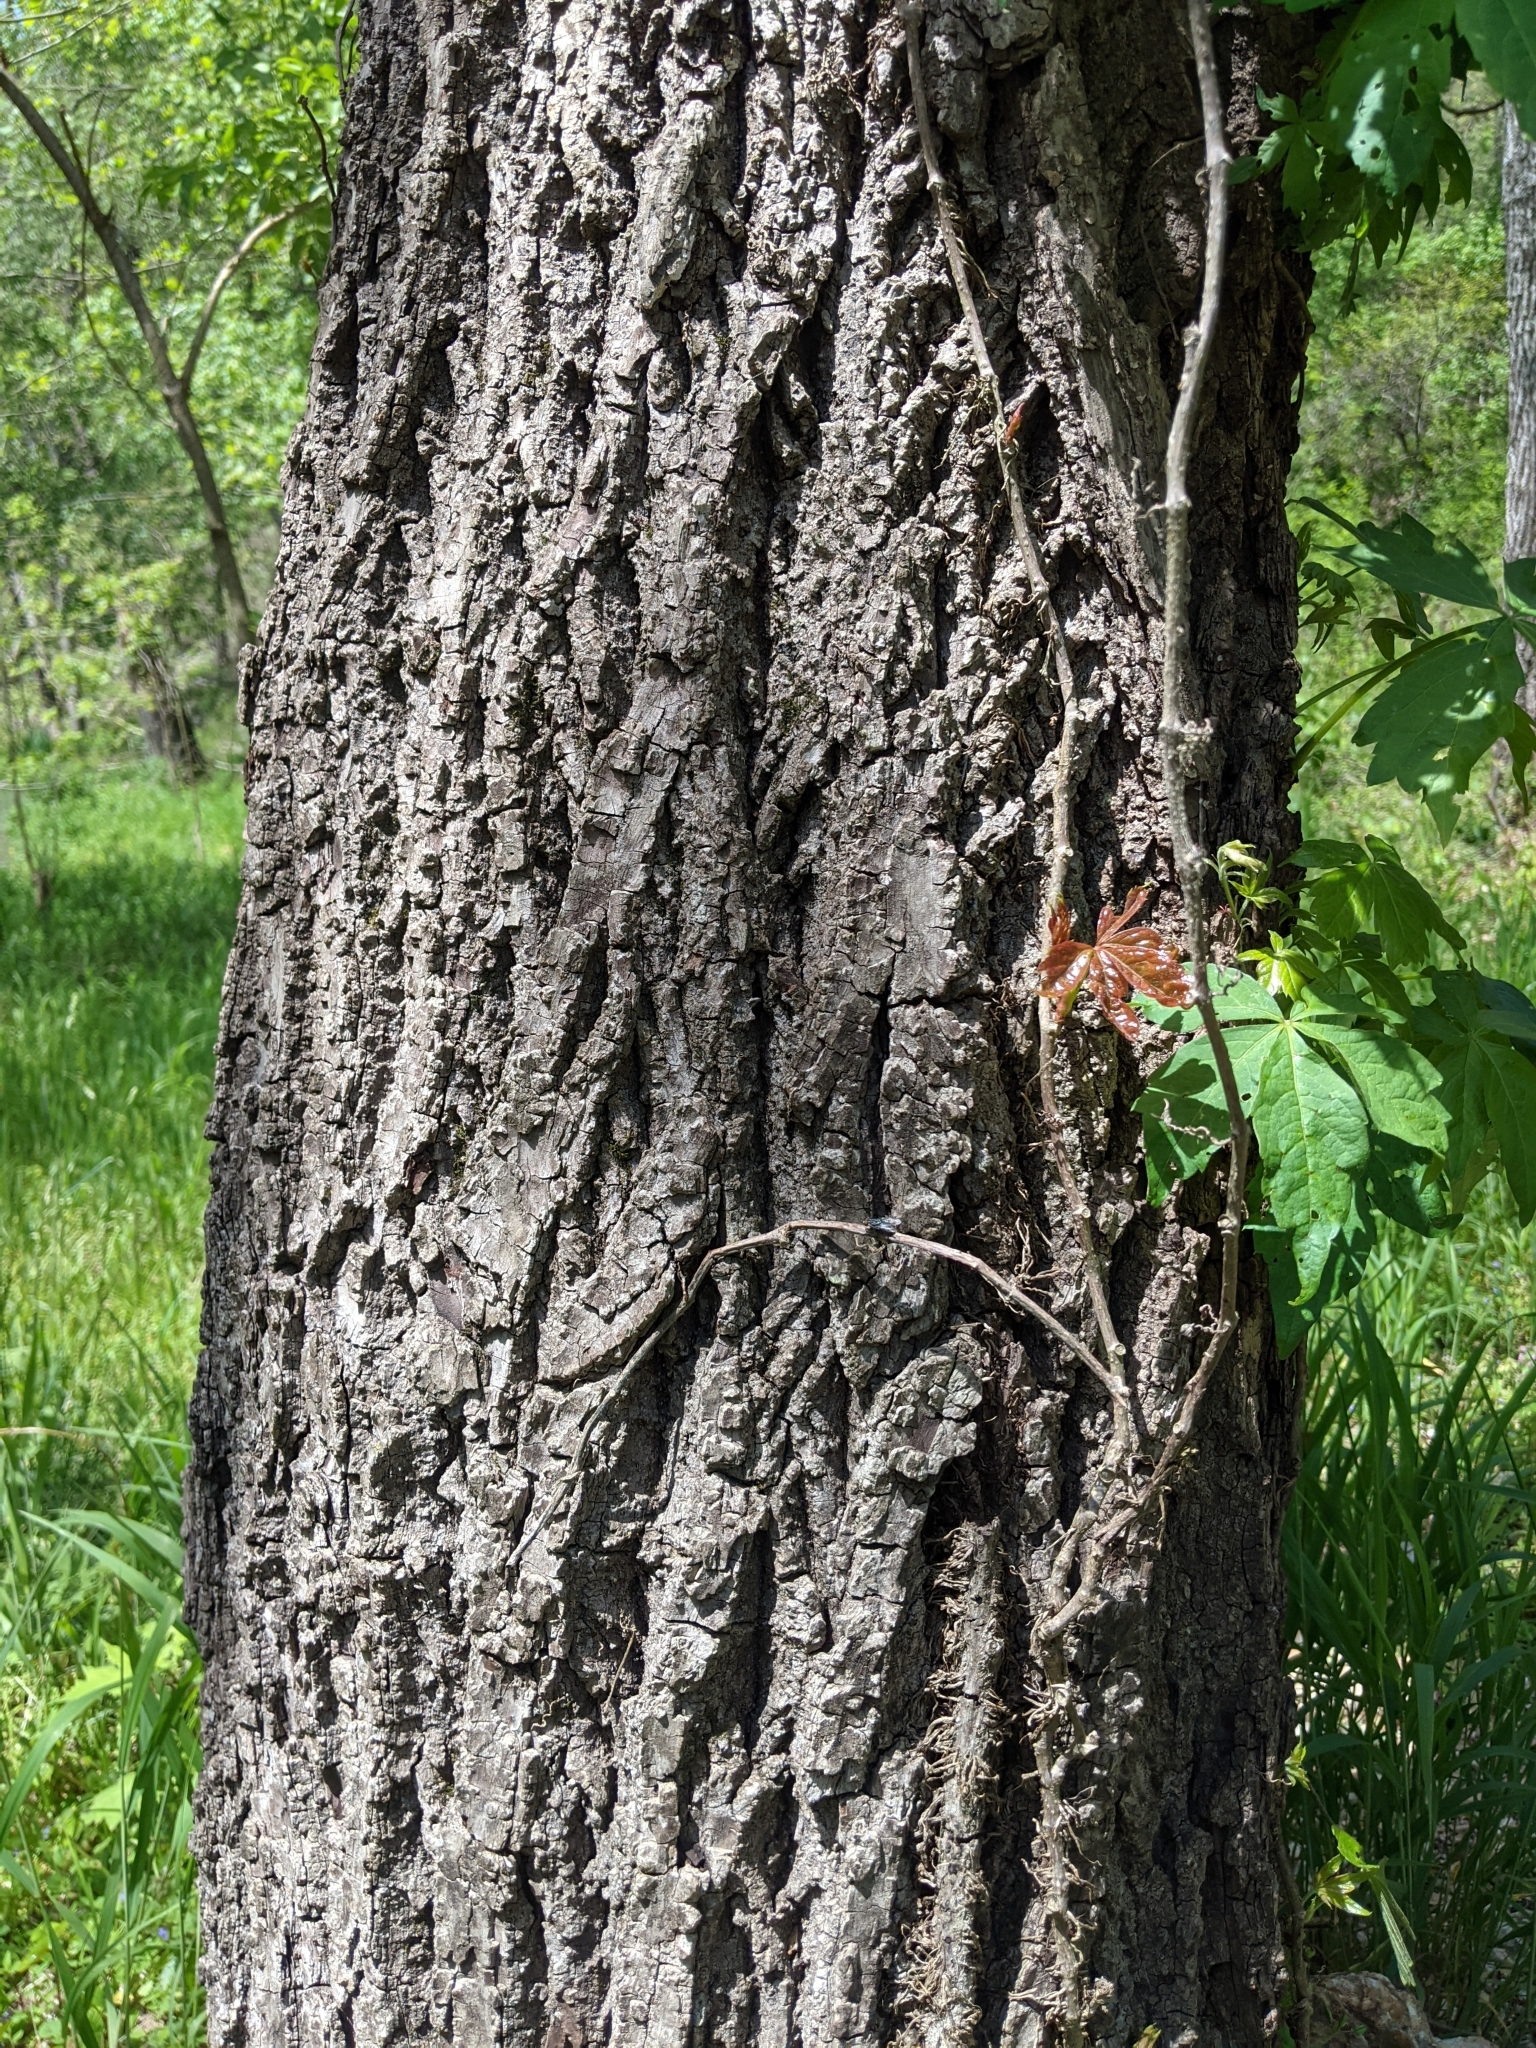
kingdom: Plantae
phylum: Tracheophyta
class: Magnoliopsida
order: Fagales
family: Juglandaceae
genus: Juglans
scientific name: Juglans nigra
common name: Black walnut
